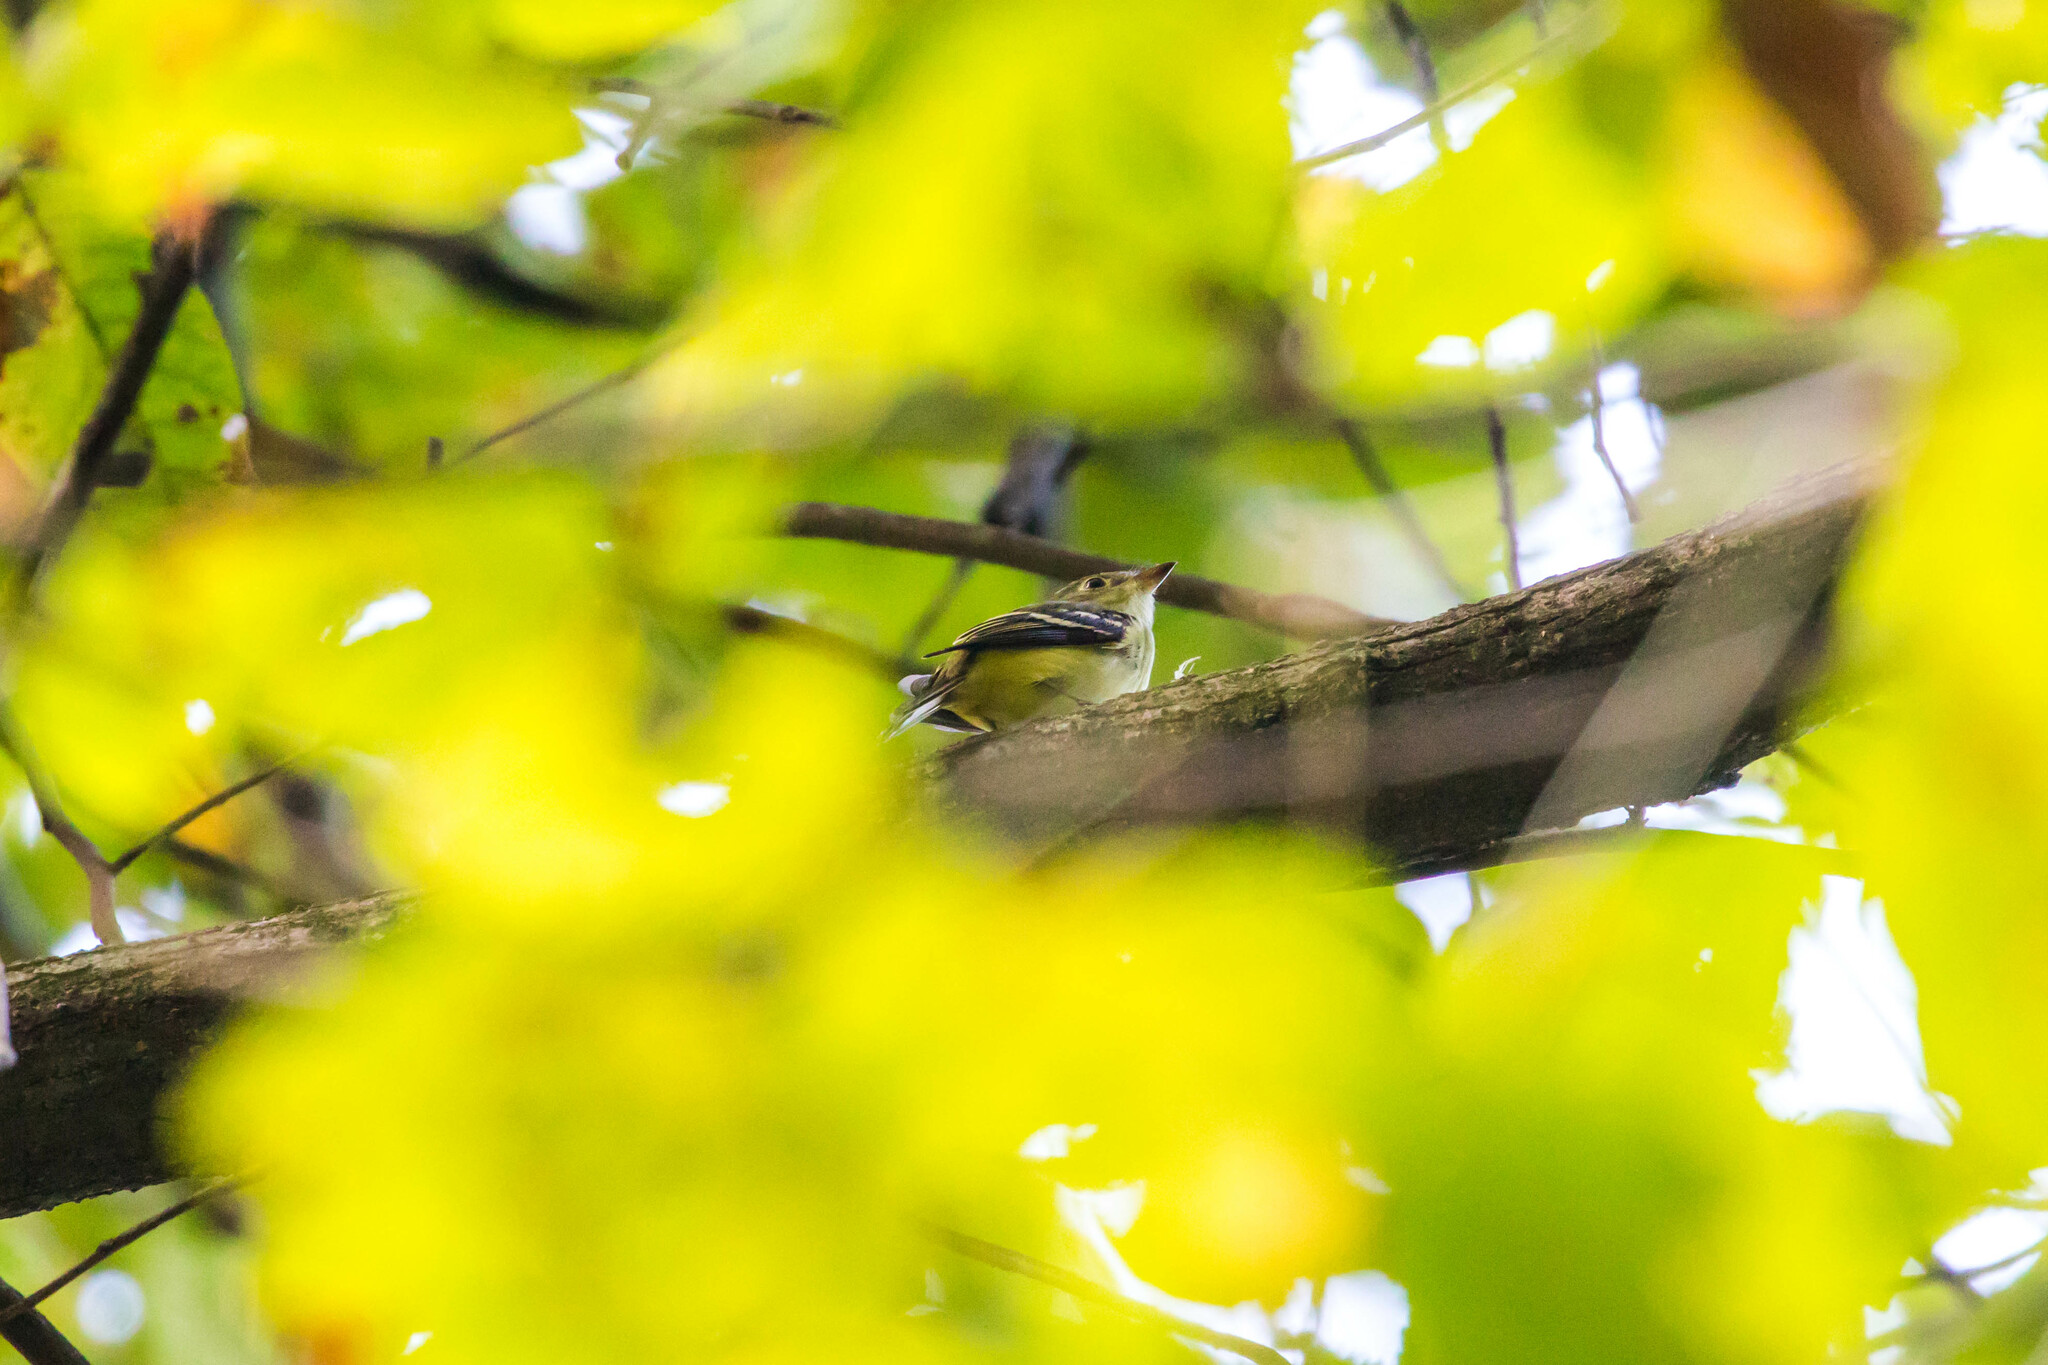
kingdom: Animalia
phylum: Chordata
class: Aves
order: Passeriformes
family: Tyrannidae
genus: Empidonax
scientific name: Empidonax flaviventris
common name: Yellow-bellied flycatcher
